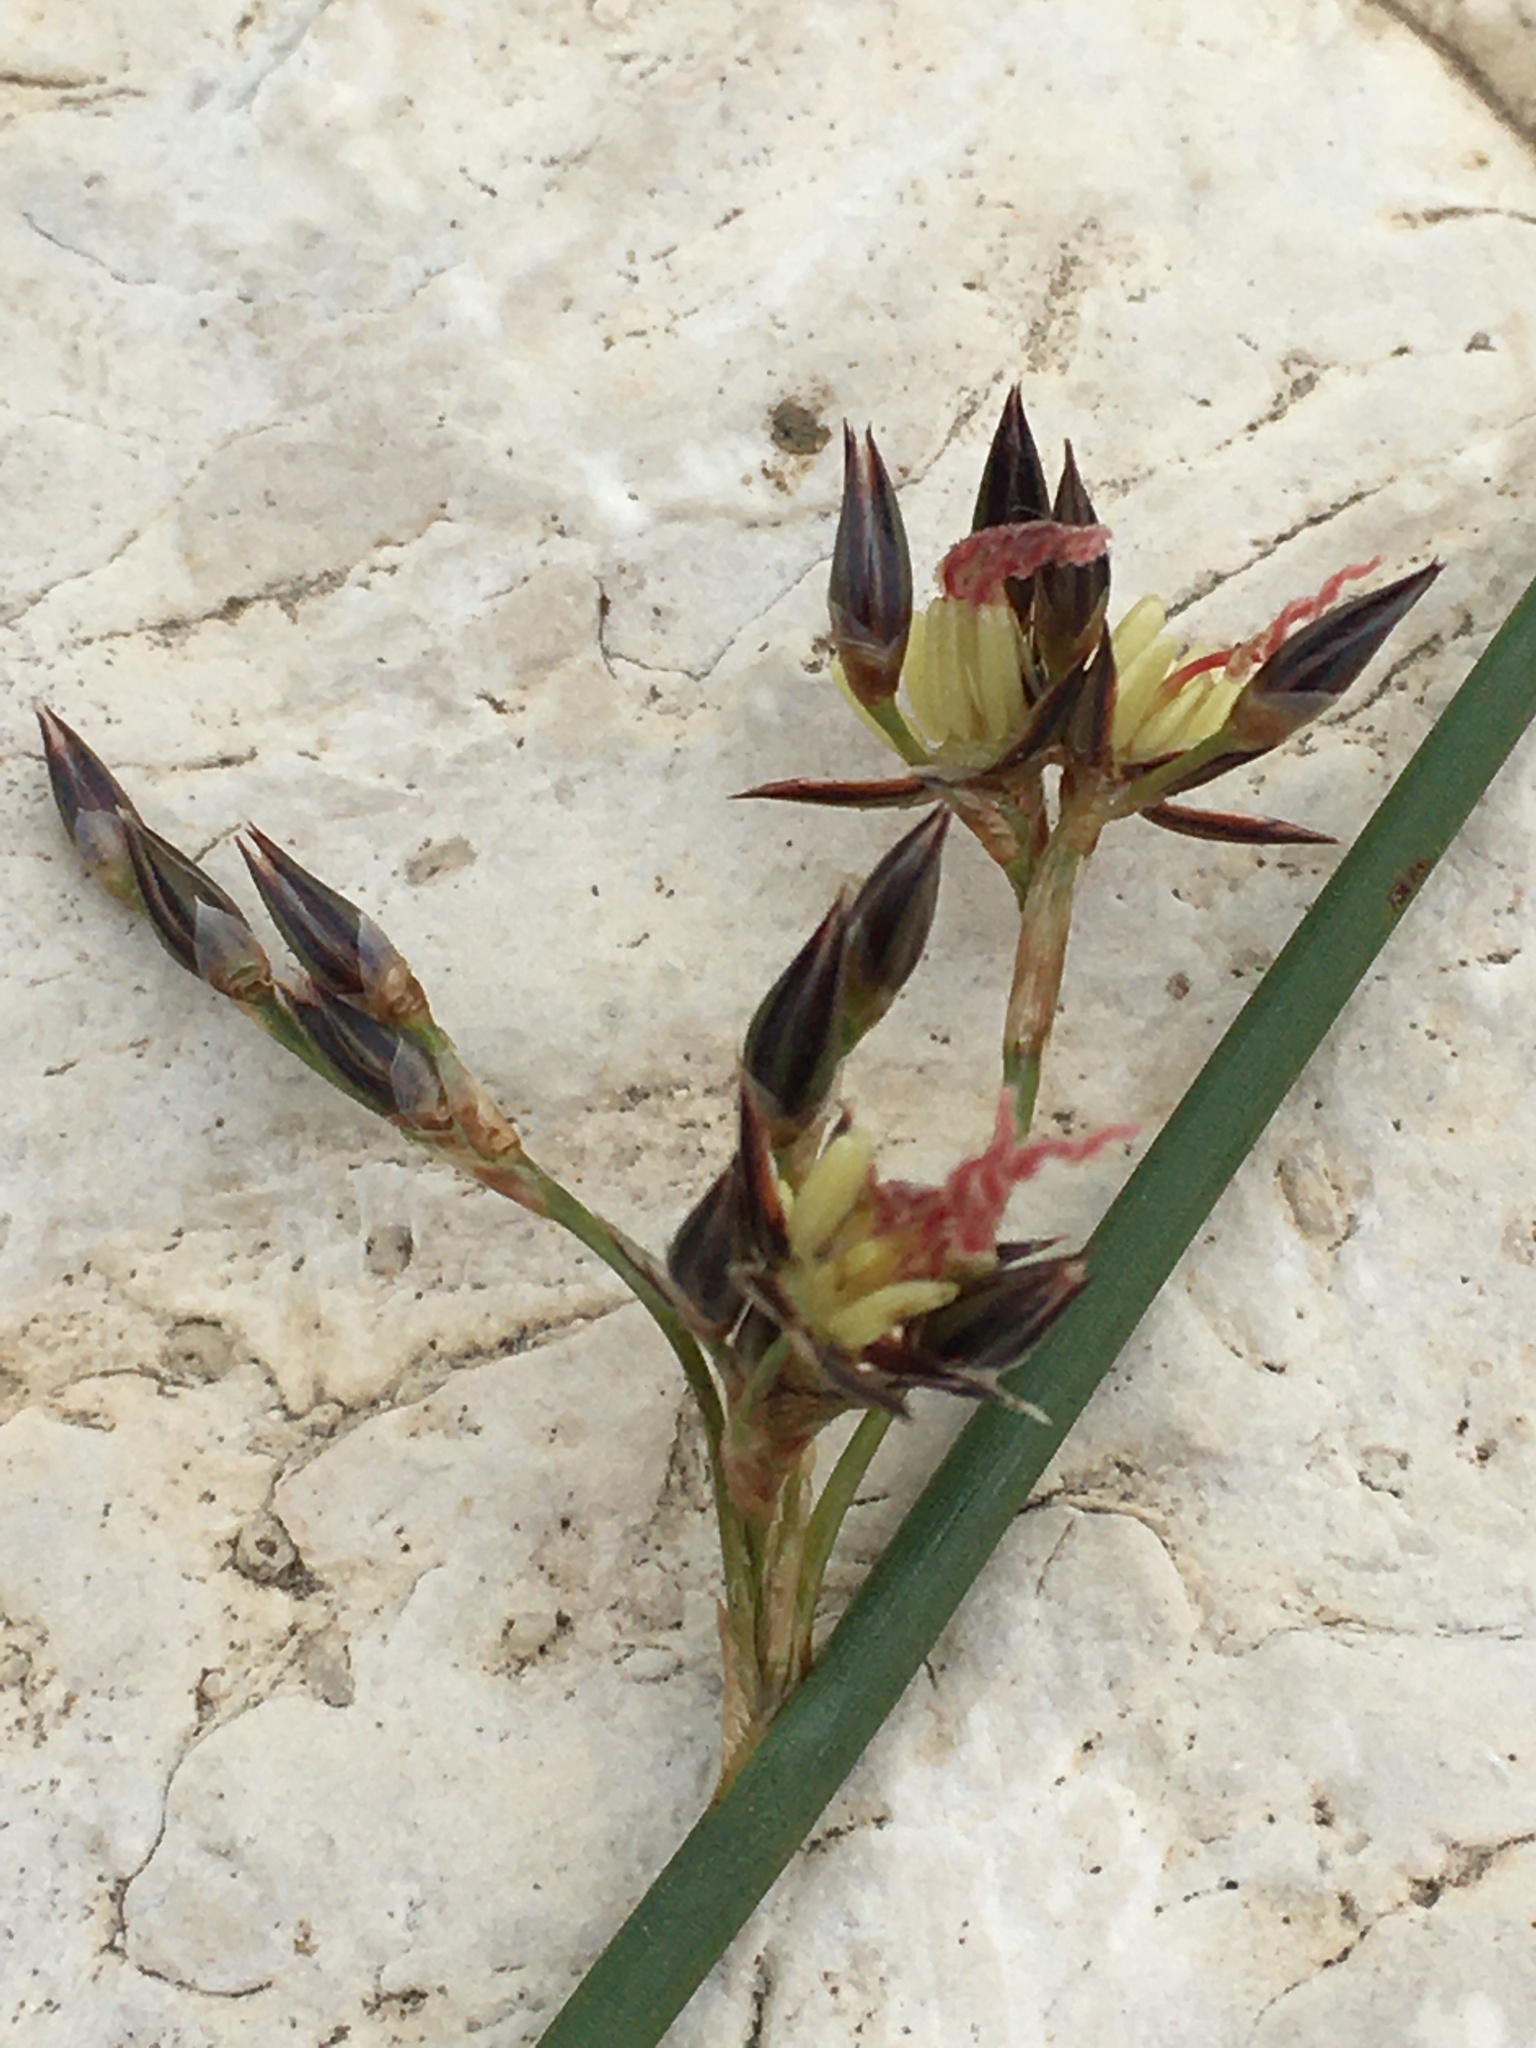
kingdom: Plantae
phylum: Tracheophyta
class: Liliopsida
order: Poales
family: Juncaceae
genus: Juncus
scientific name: Juncus balticus
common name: Baltic rush
